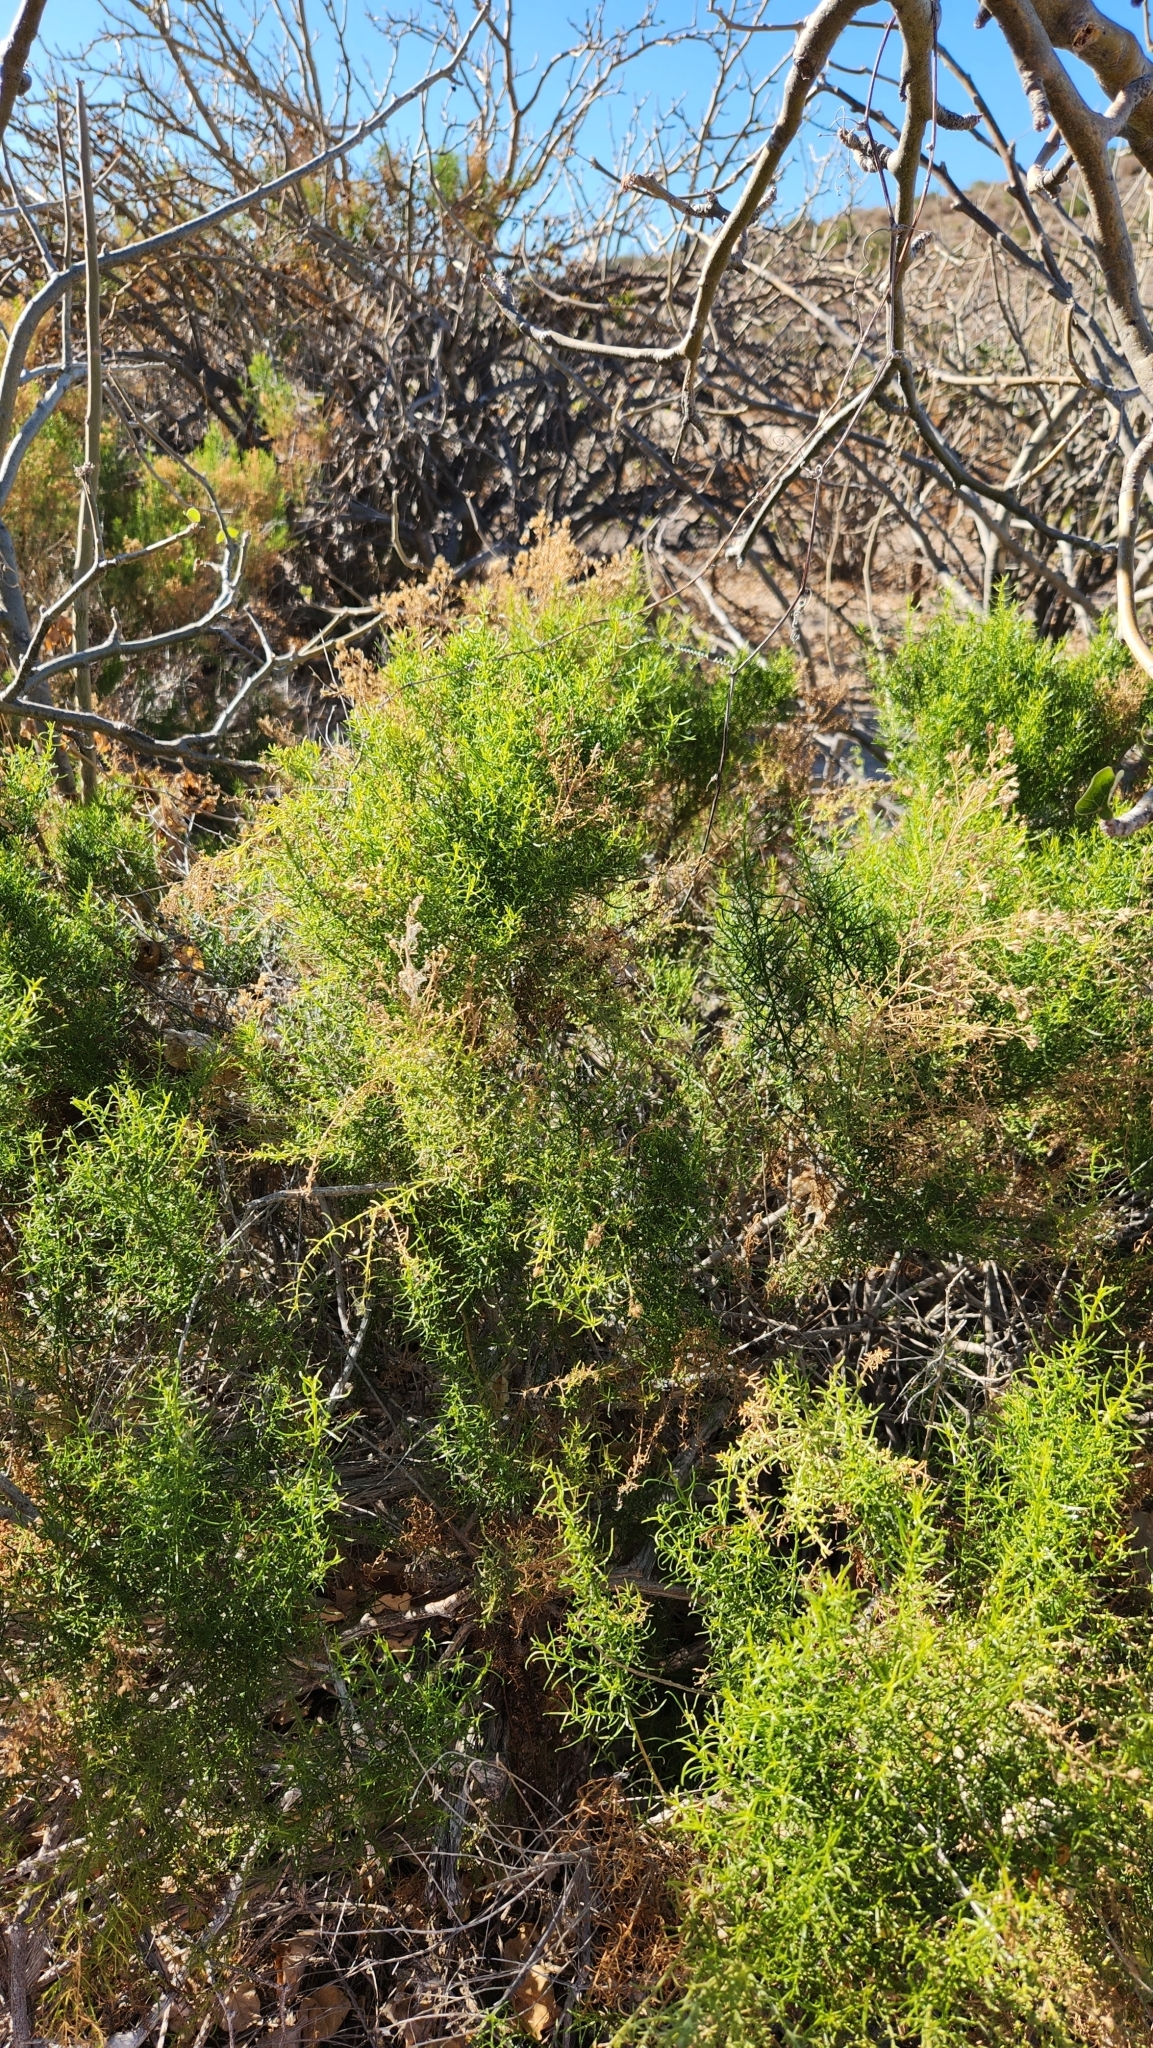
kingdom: Plantae
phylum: Tracheophyta
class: Magnoliopsida
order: Asterales
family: Asteraceae
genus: Gundlachia
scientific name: Gundlachia diffusa
